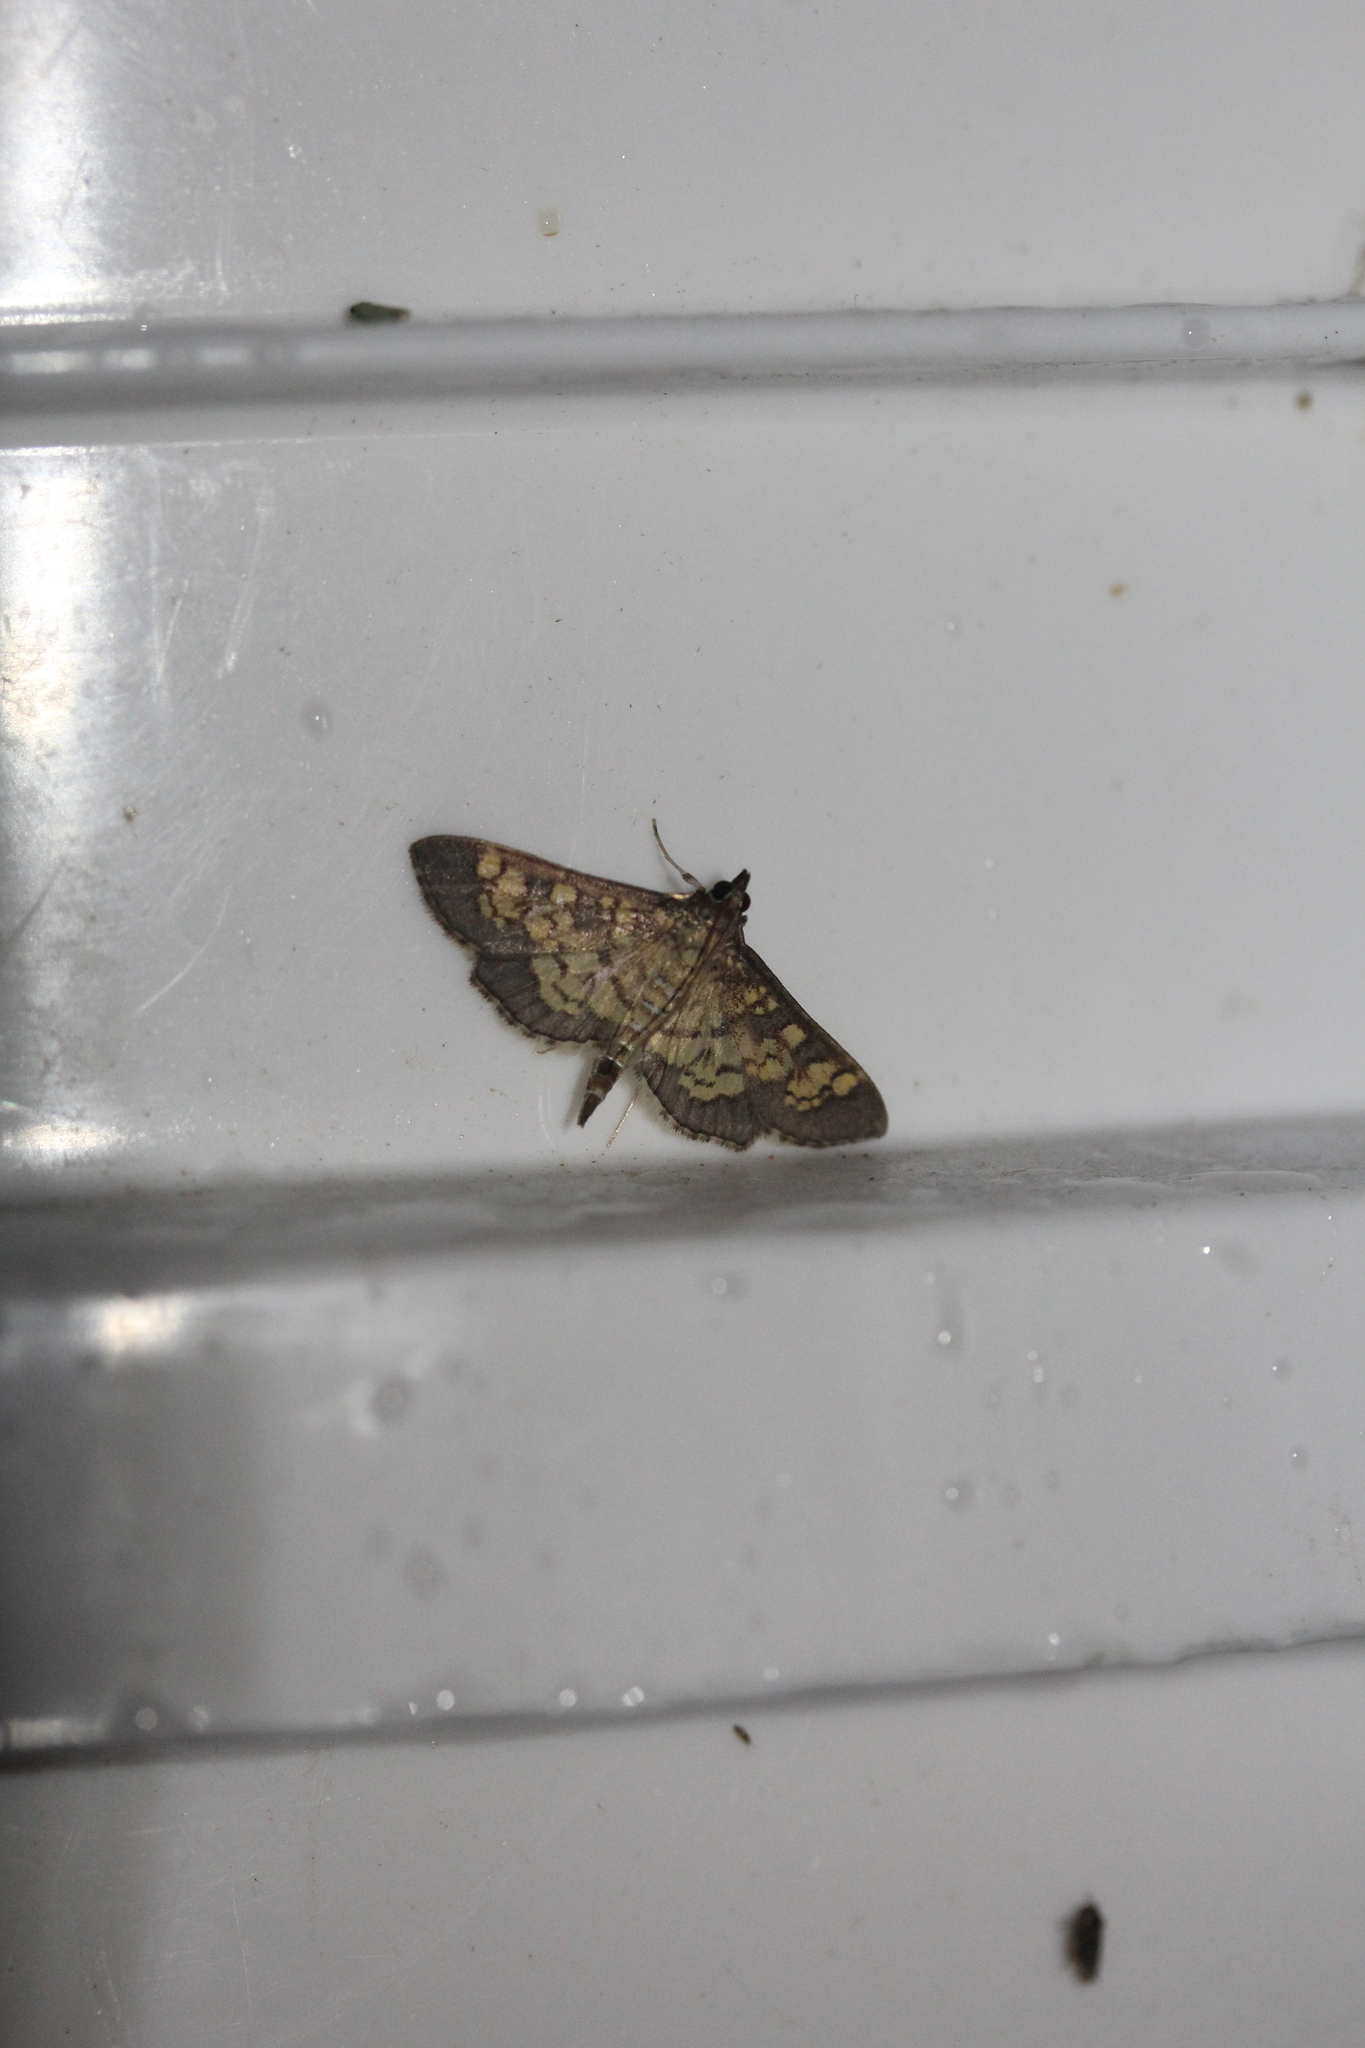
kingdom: Animalia
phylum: Arthropoda
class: Insecta
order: Lepidoptera
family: Crambidae
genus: Epipagis
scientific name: Epipagis adipaloides
